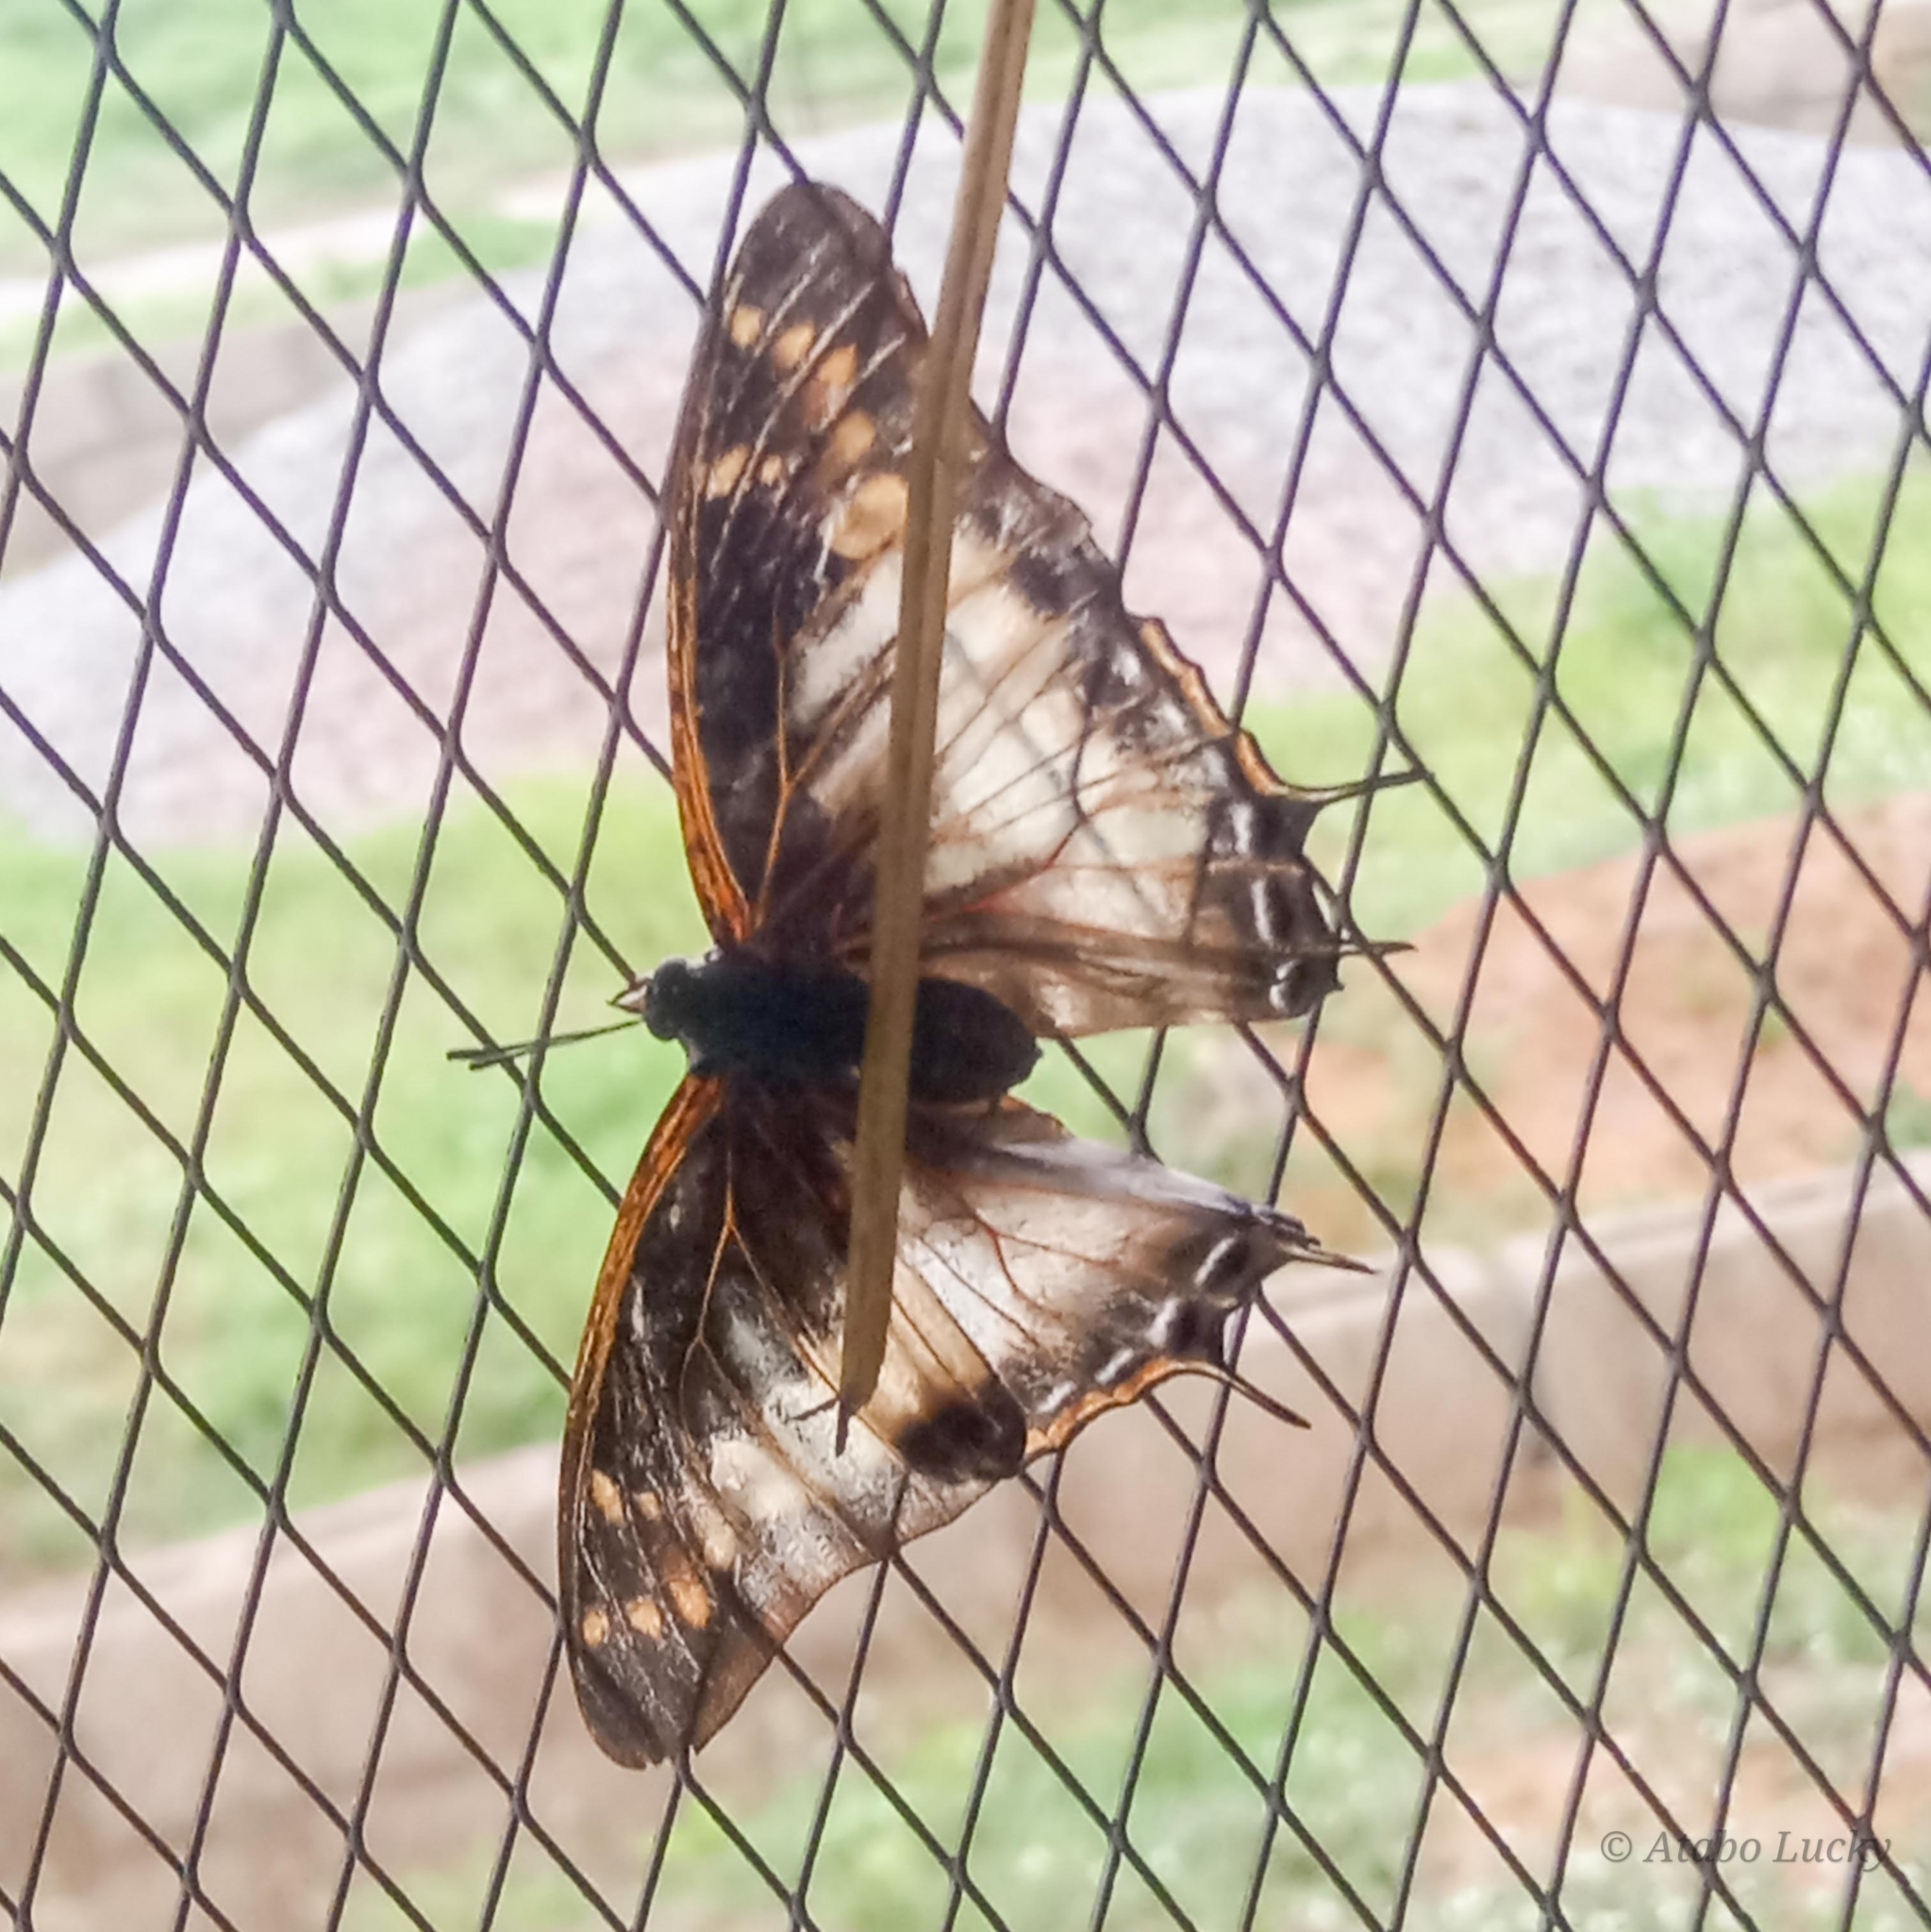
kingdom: Animalia
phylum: Arthropoda
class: Insecta
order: Lepidoptera
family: Nymphalidae
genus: Charaxes
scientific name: Charaxes viola
